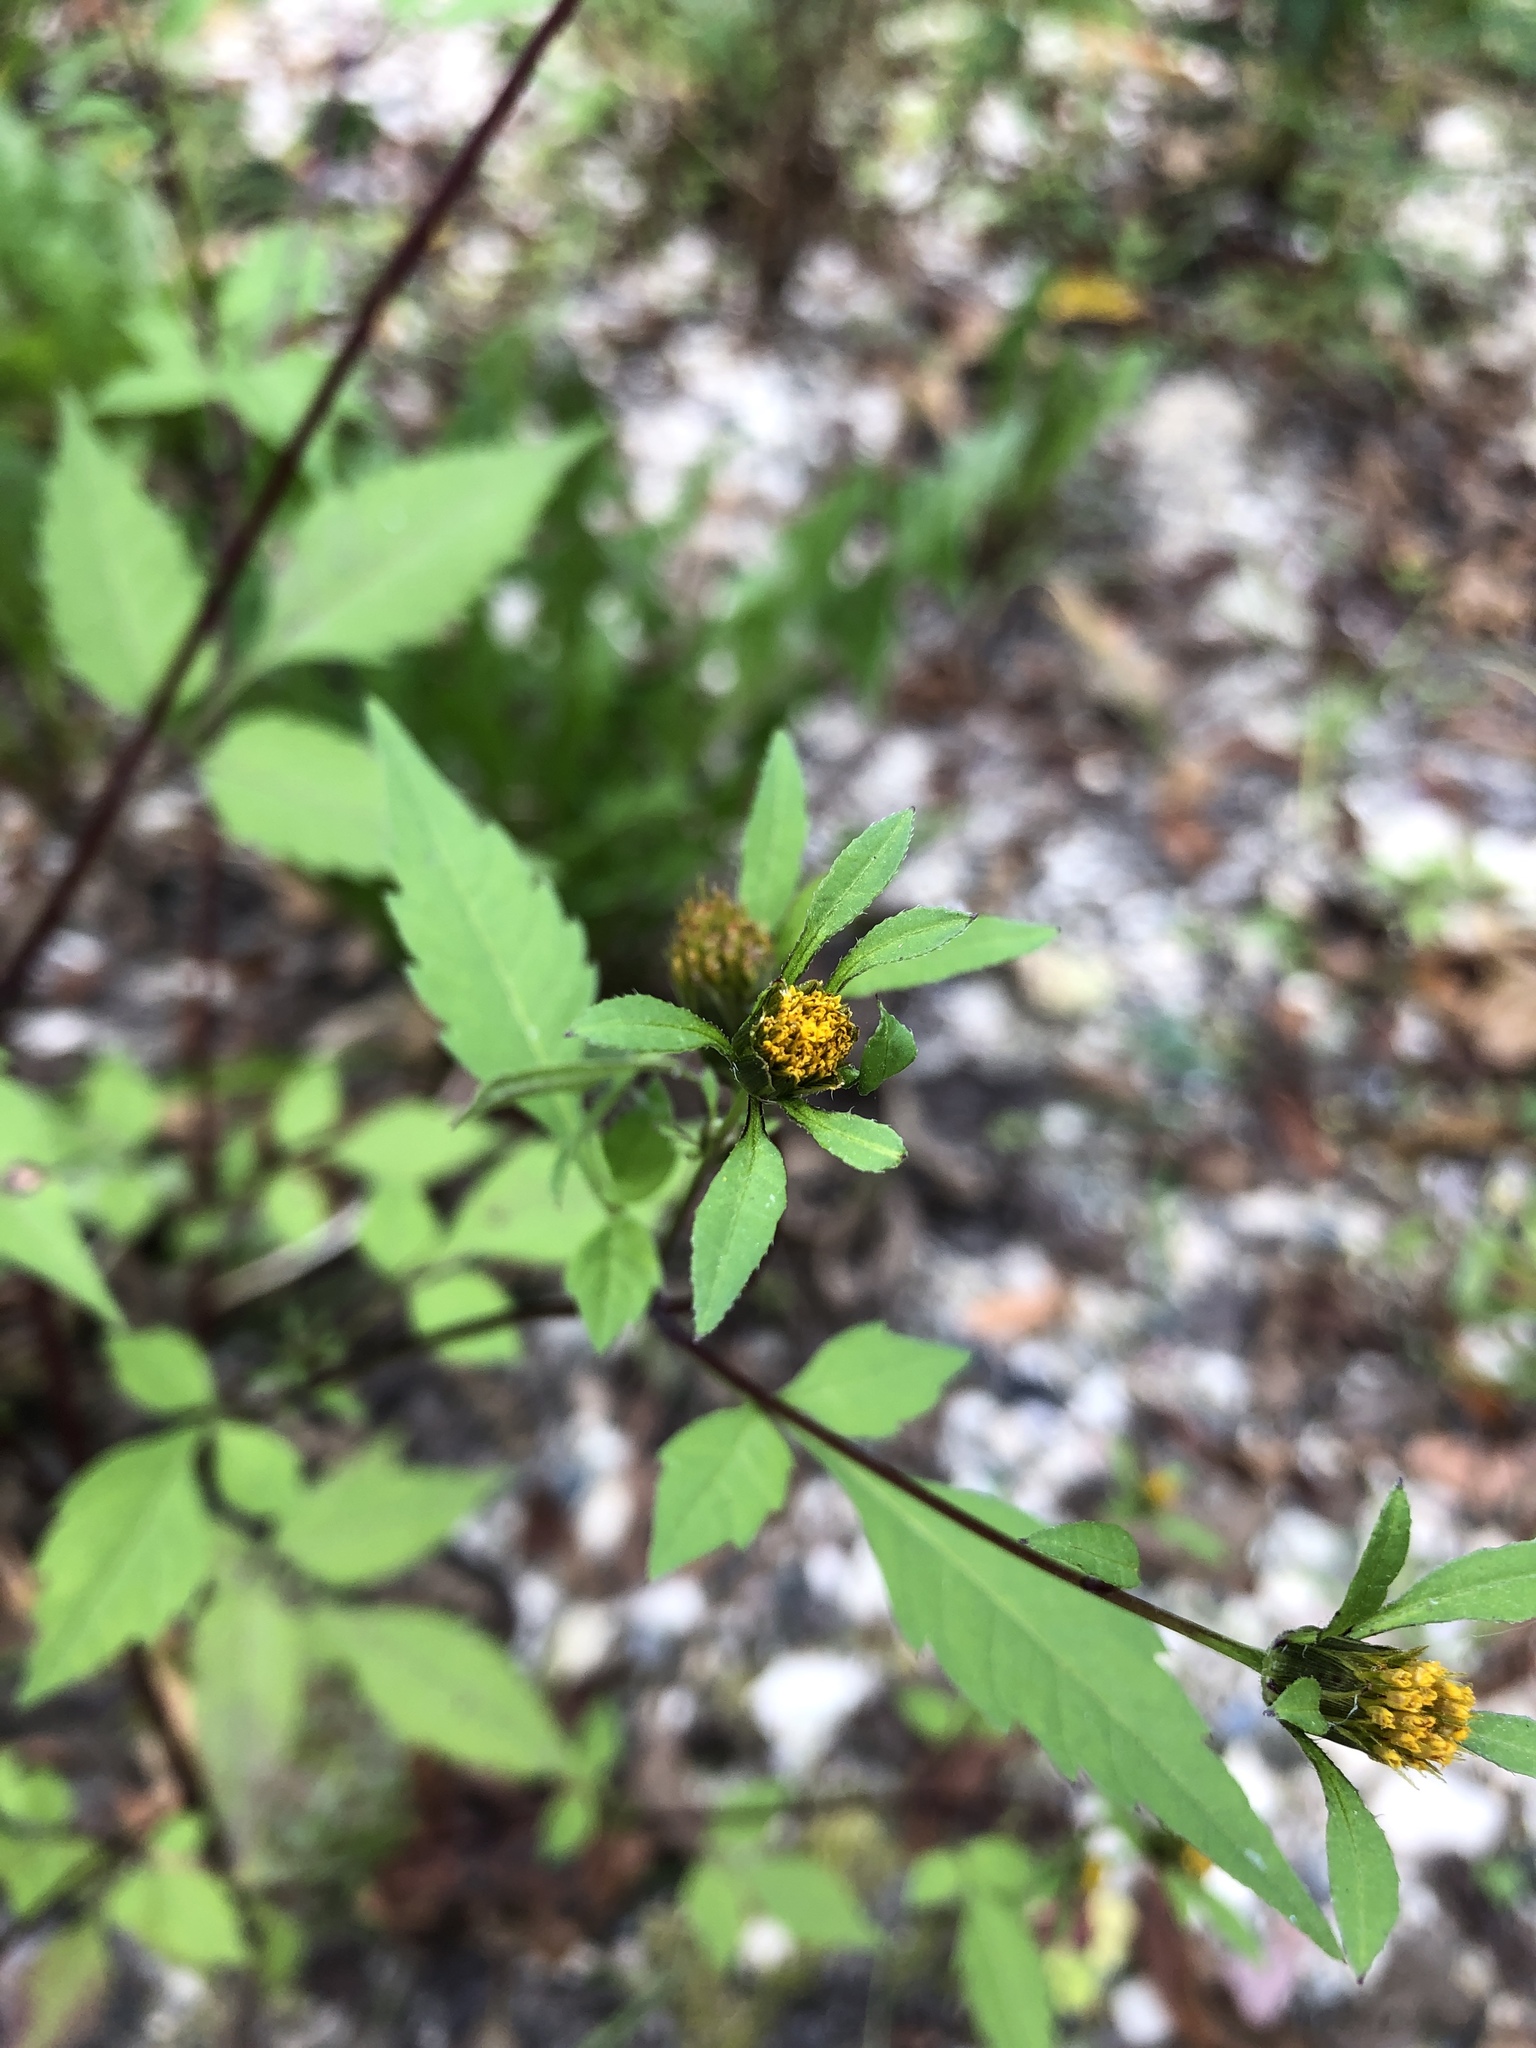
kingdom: Plantae
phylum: Tracheophyta
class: Magnoliopsida
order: Asterales
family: Asteraceae
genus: Bidens
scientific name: Bidens frondosa
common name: Beggarticks
